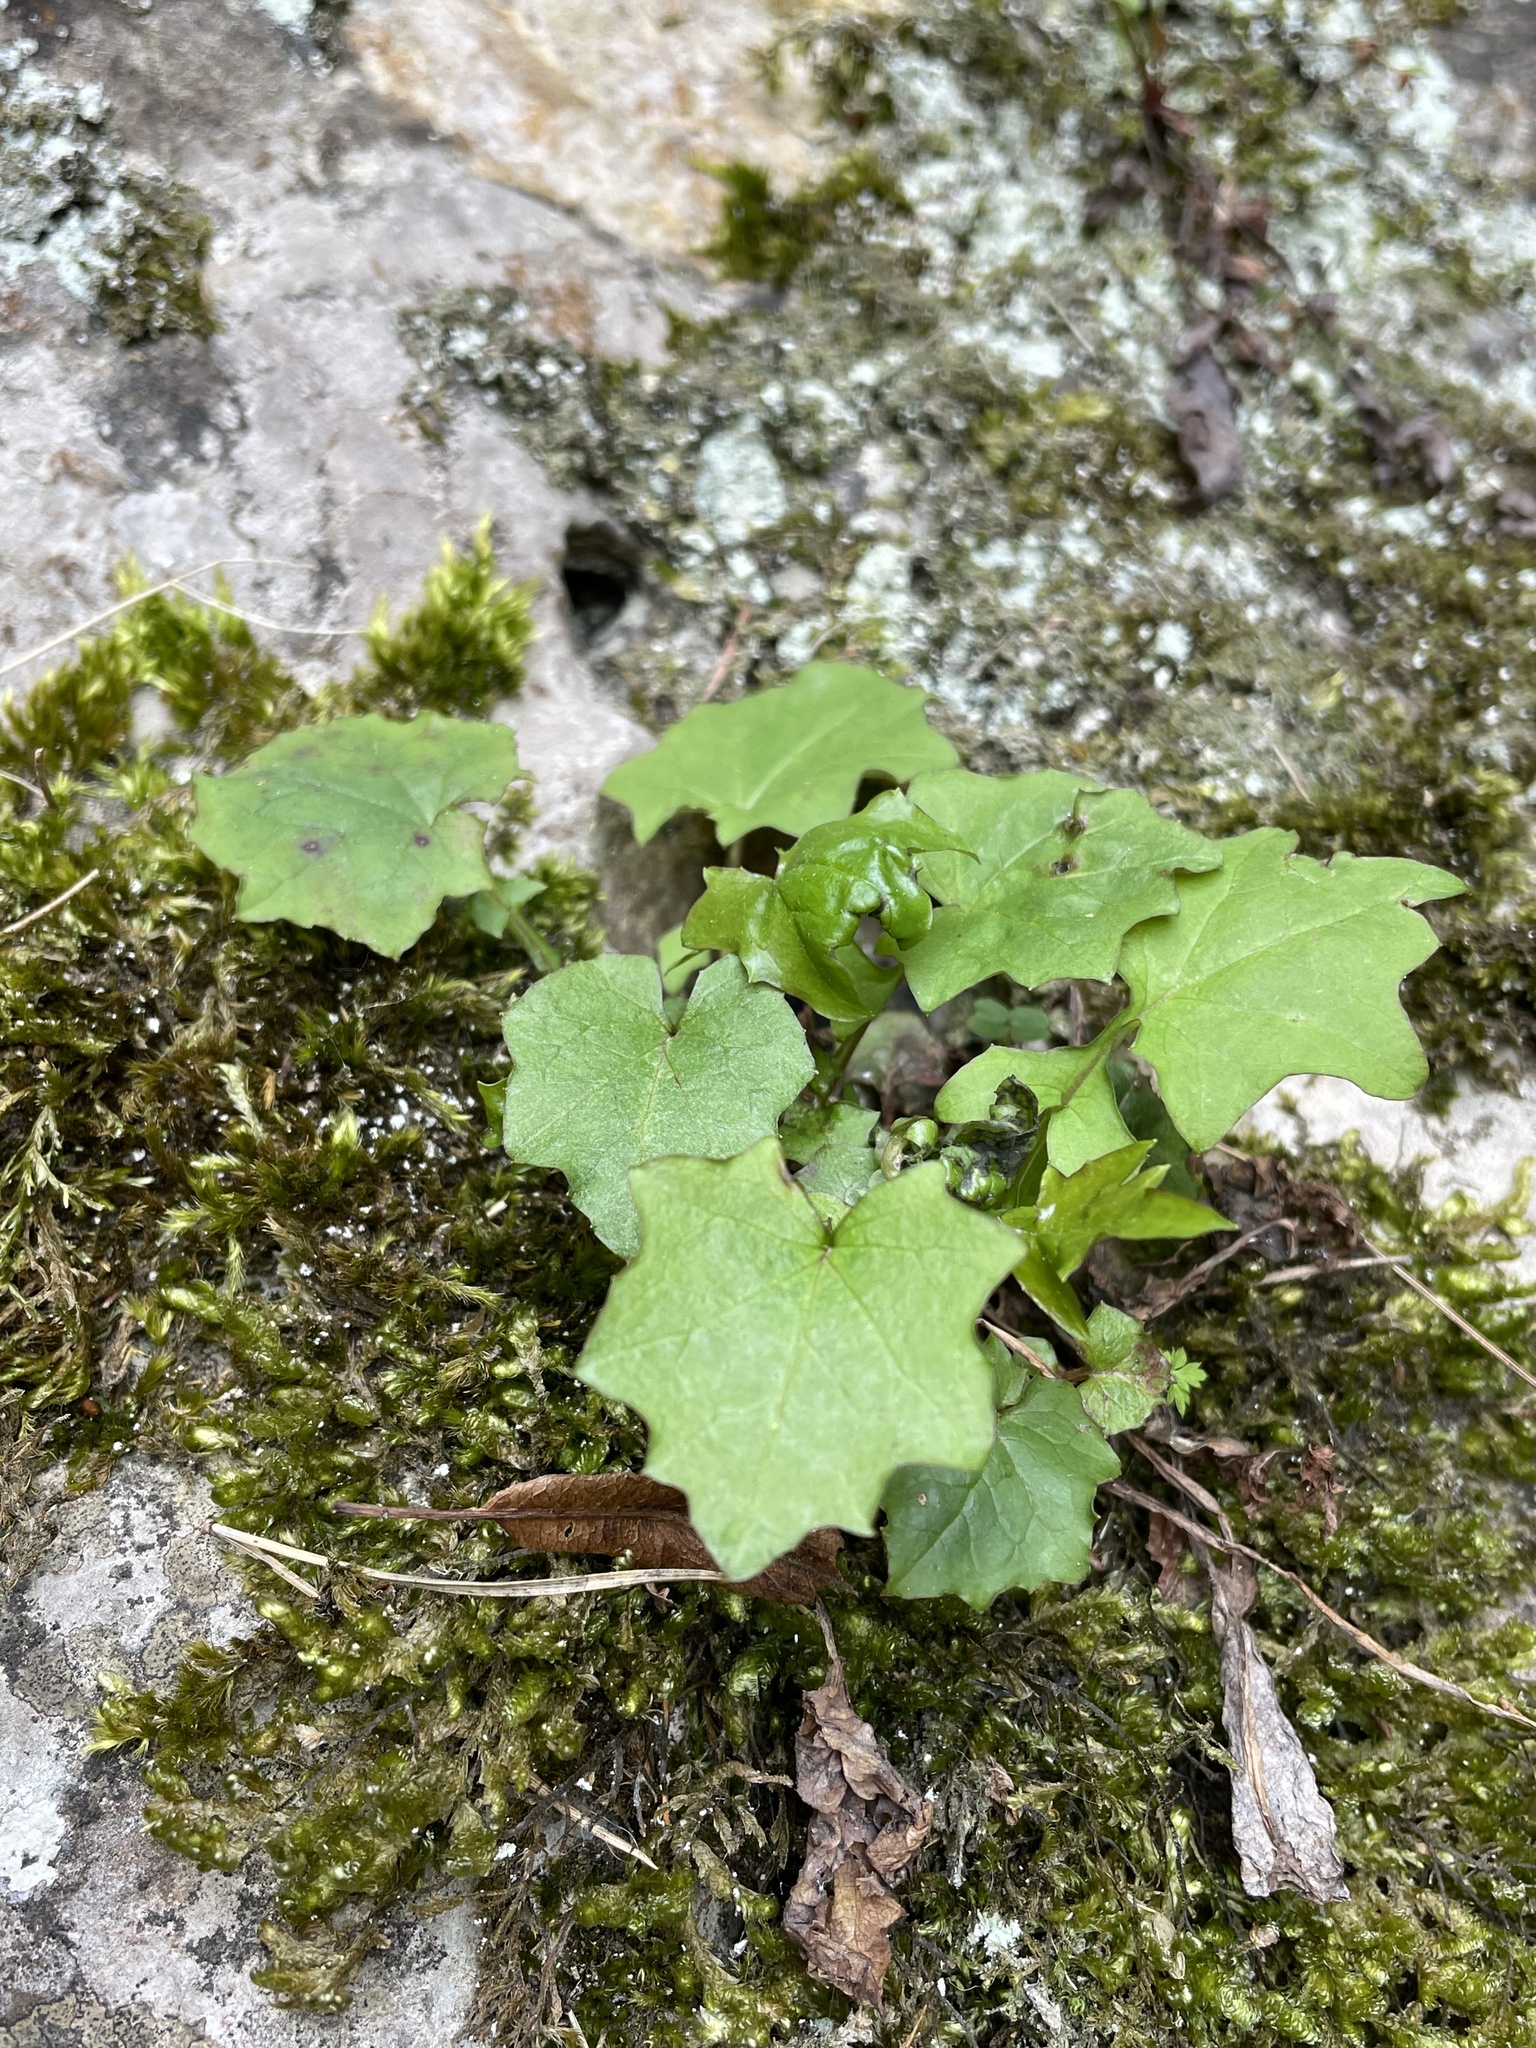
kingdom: Plantae
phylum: Tracheophyta
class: Magnoliopsida
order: Asterales
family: Asteraceae
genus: Mycelis
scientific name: Mycelis muralis
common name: Wall lettuce
